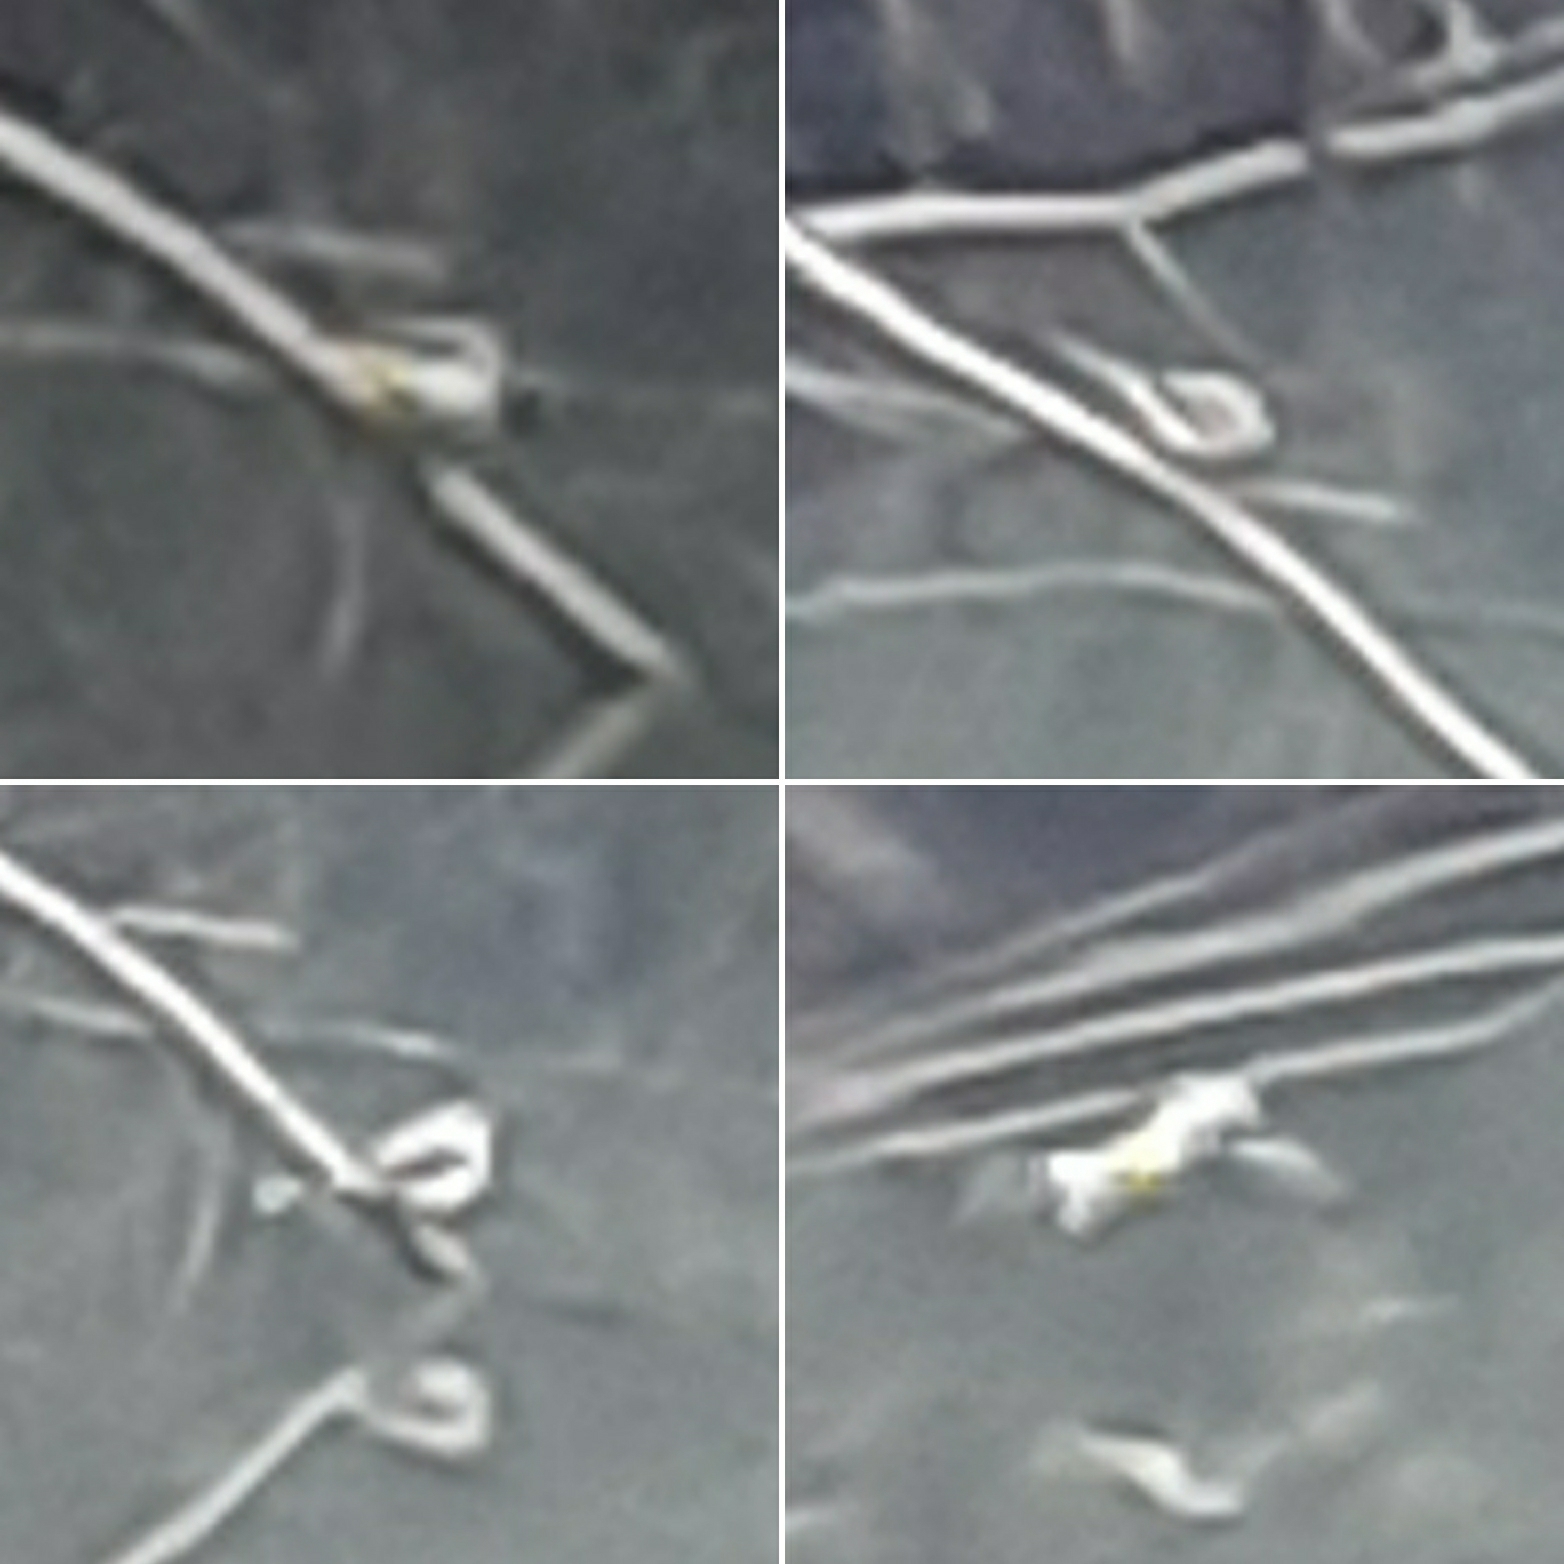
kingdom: Animalia
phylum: Chordata
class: Aves
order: Passeriformes
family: Motacillidae
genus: Motacilla
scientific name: Motacilla cinerea
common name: Grey wagtail
